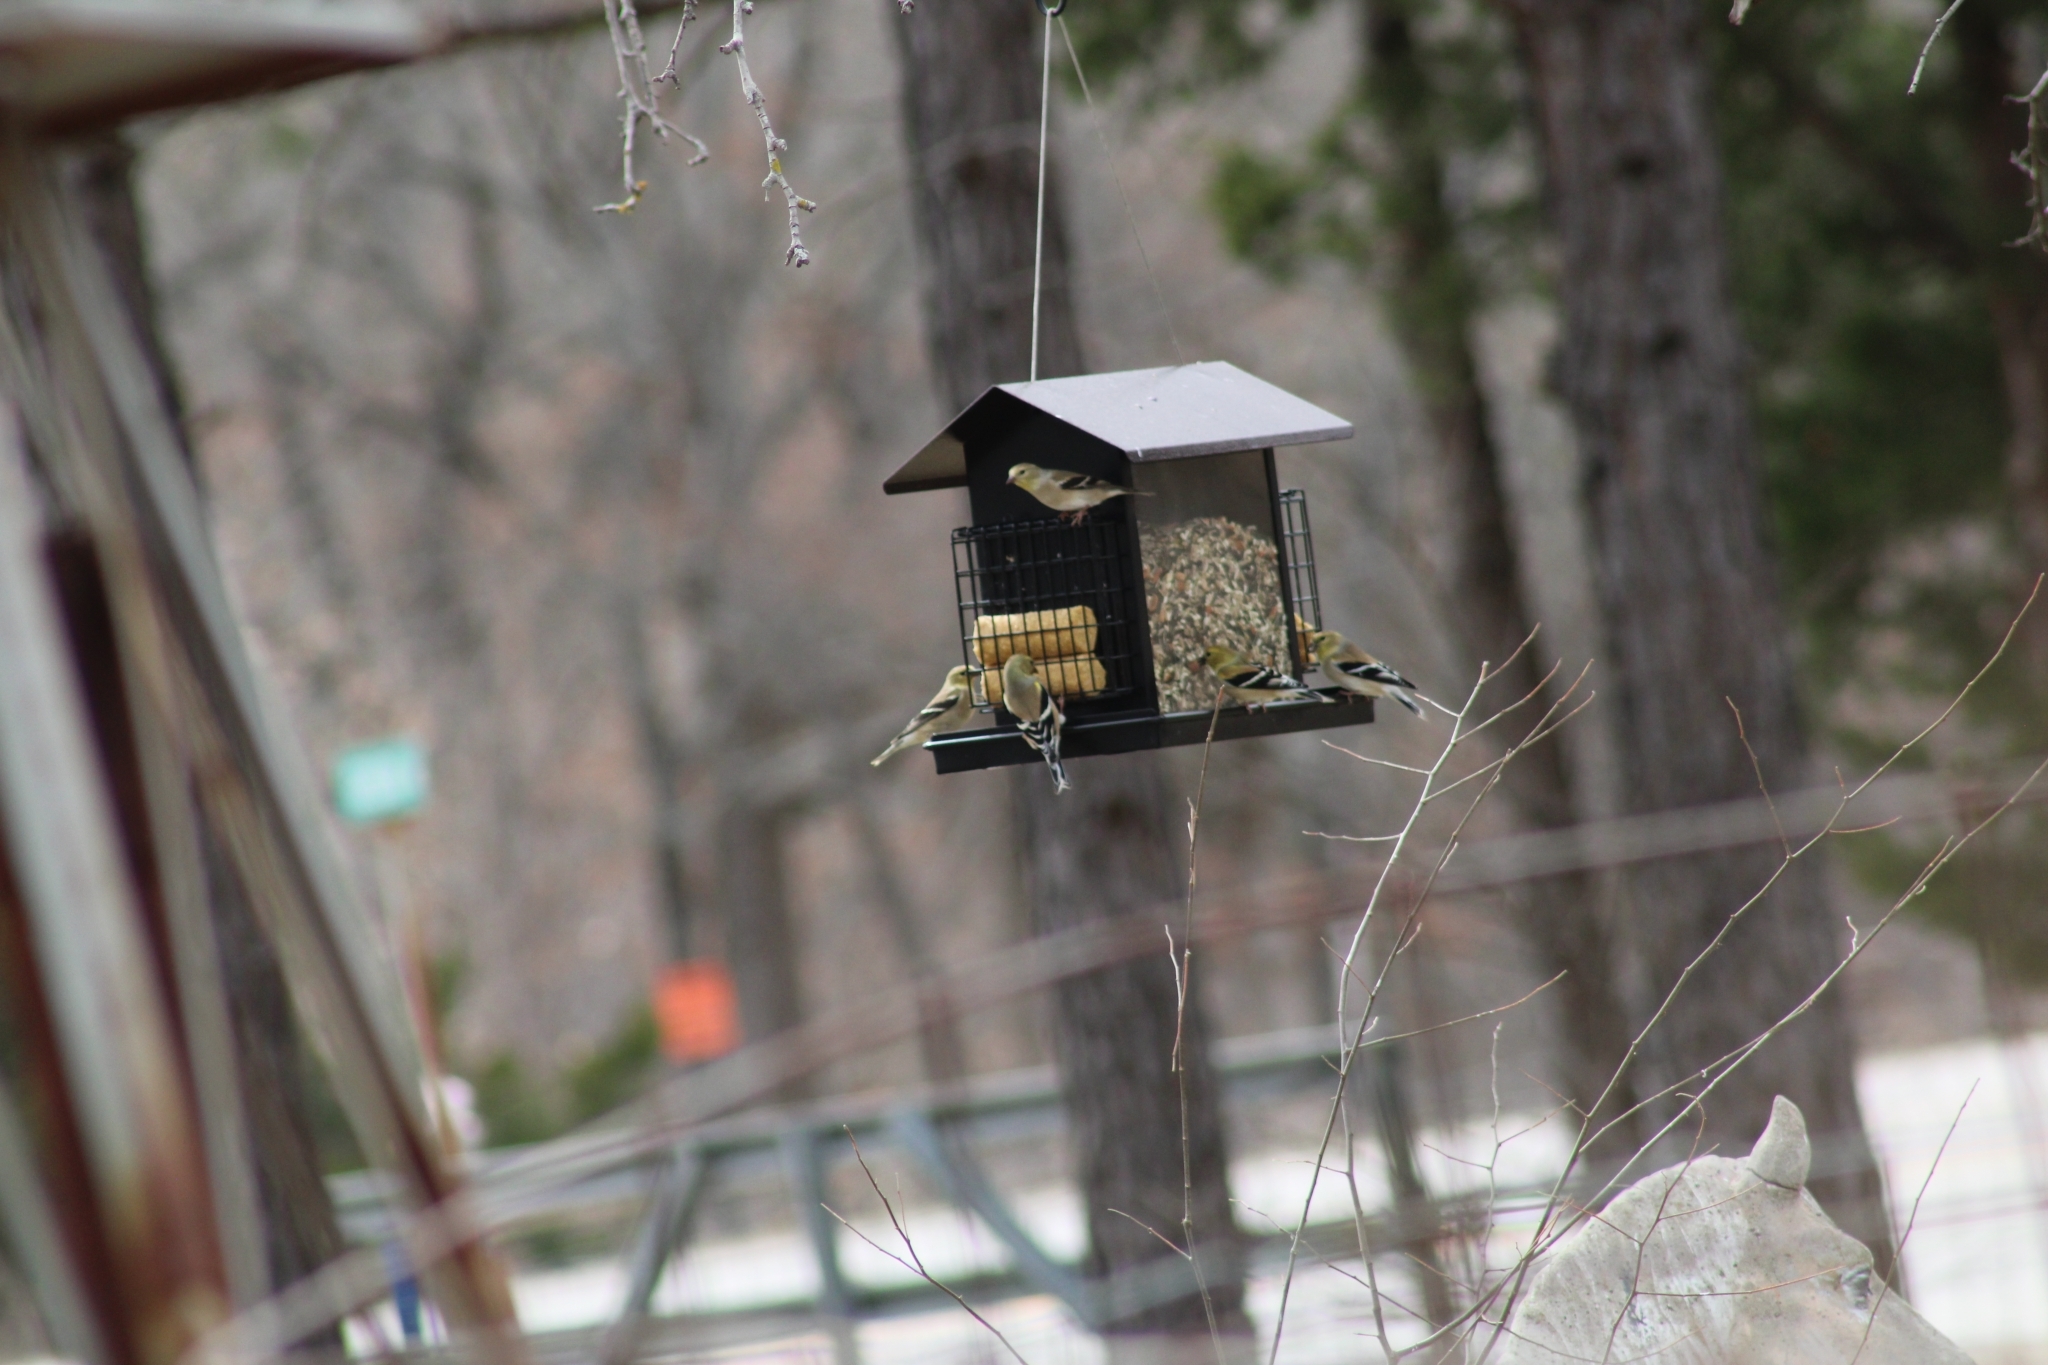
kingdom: Animalia
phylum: Chordata
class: Aves
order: Passeriformes
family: Fringillidae
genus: Spinus
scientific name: Spinus tristis
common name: American goldfinch
